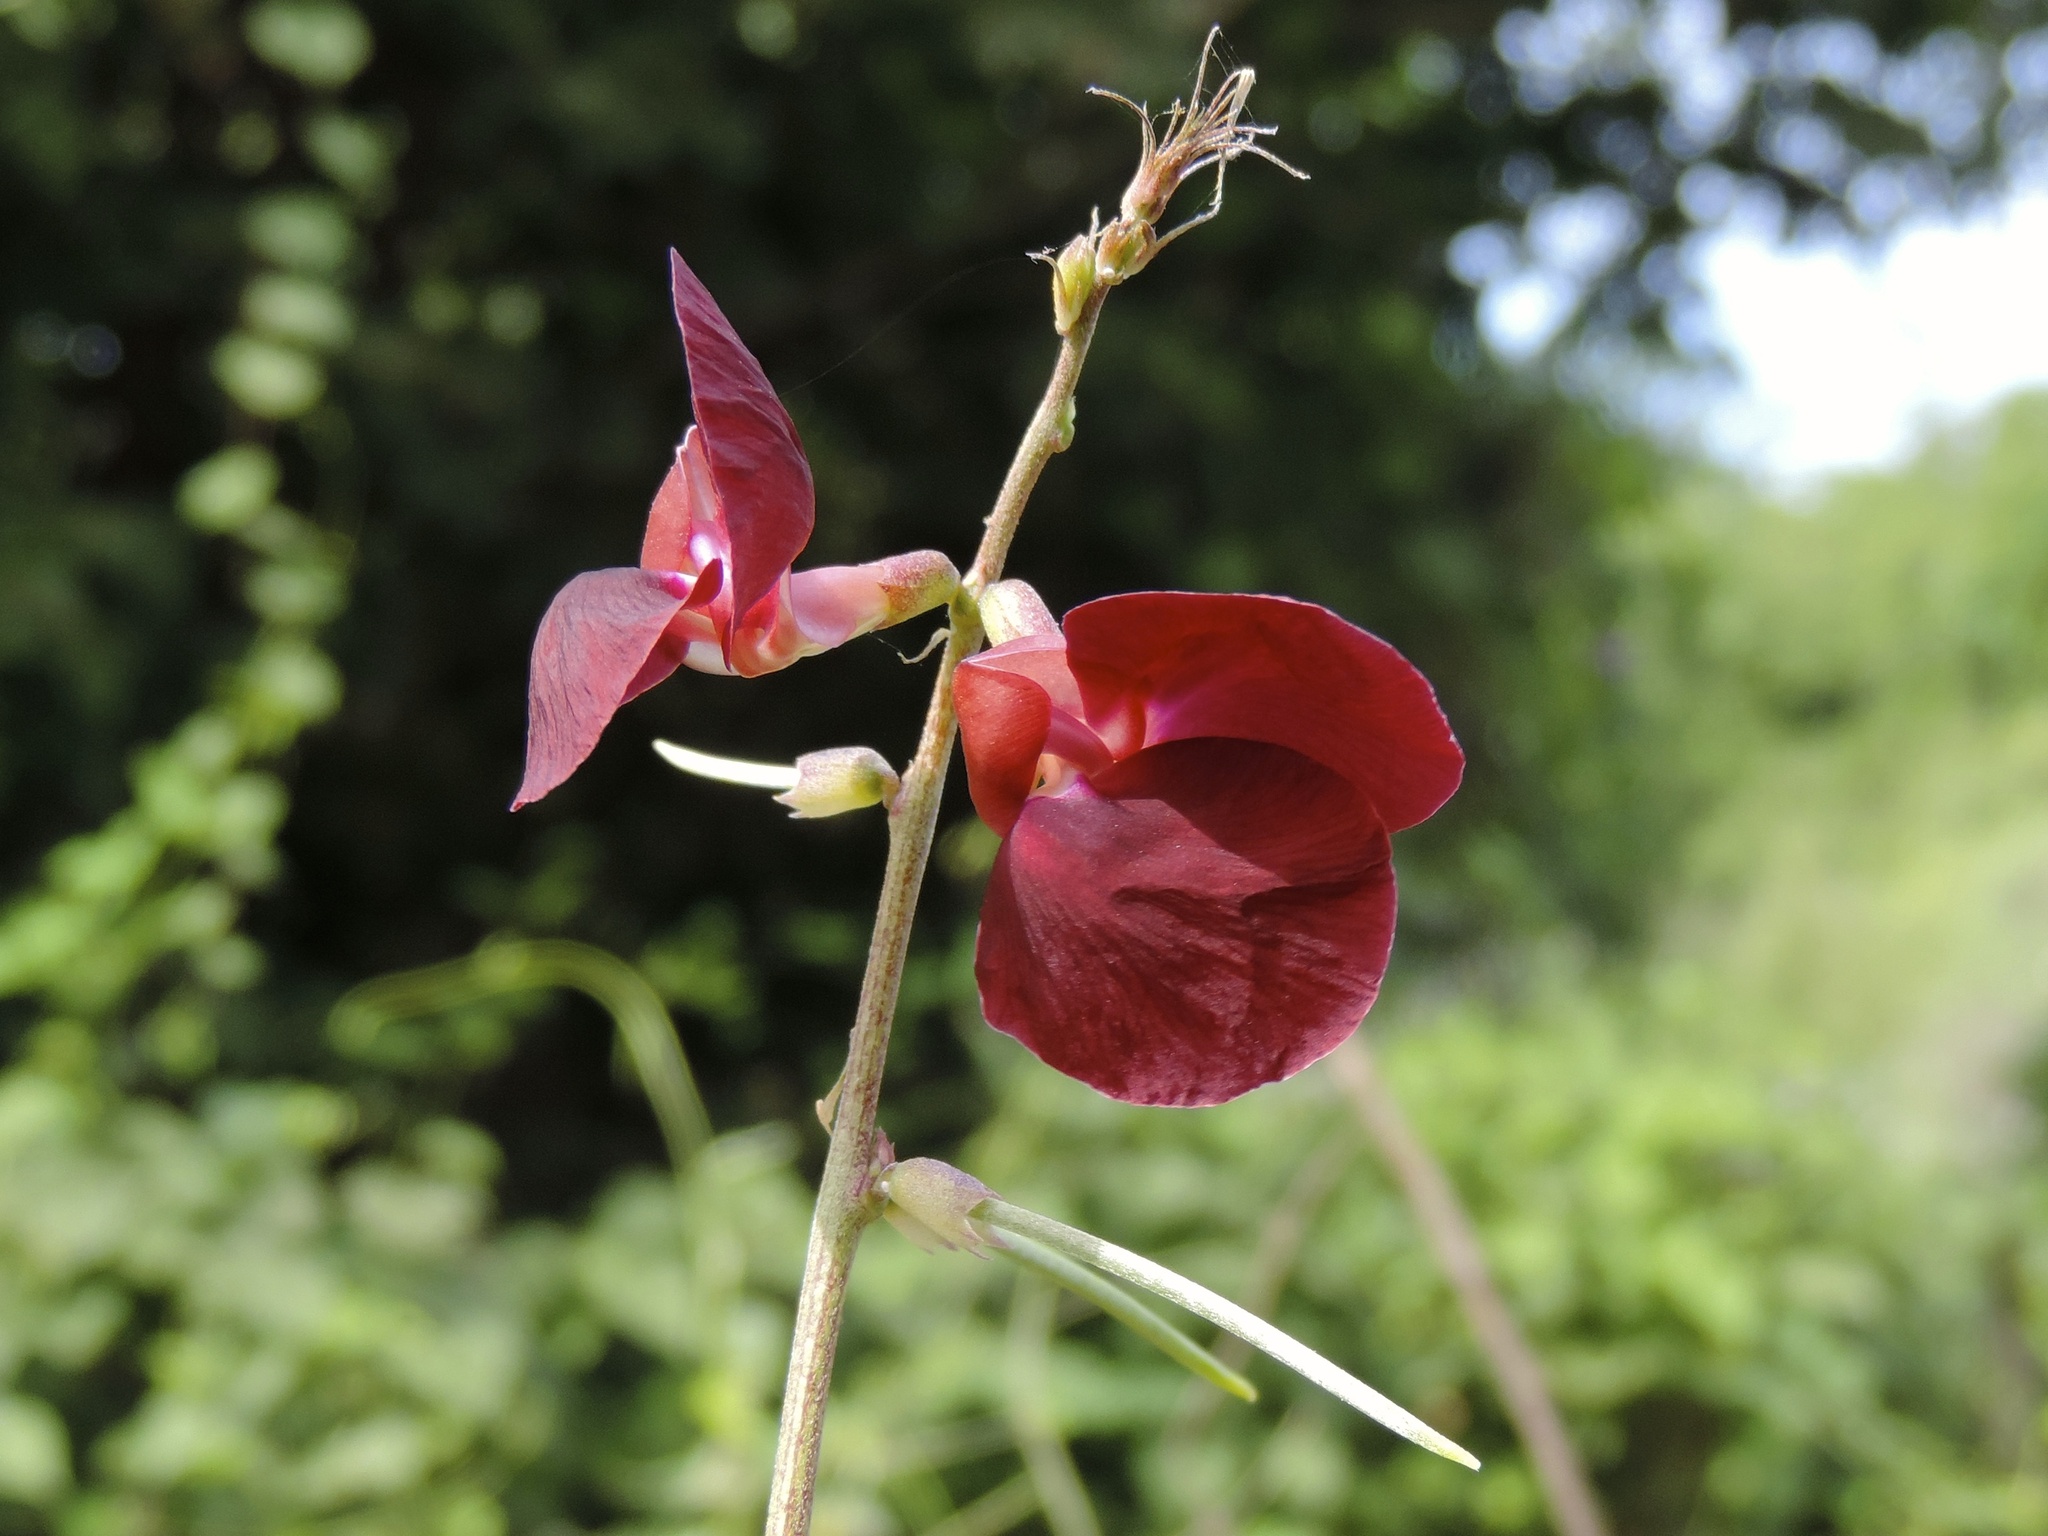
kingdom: Plantae
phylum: Tracheophyta
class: Magnoliopsida
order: Fabales
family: Fabaceae
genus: Macroptilium
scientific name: Macroptilium atropurpureum
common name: Purple bushbean
